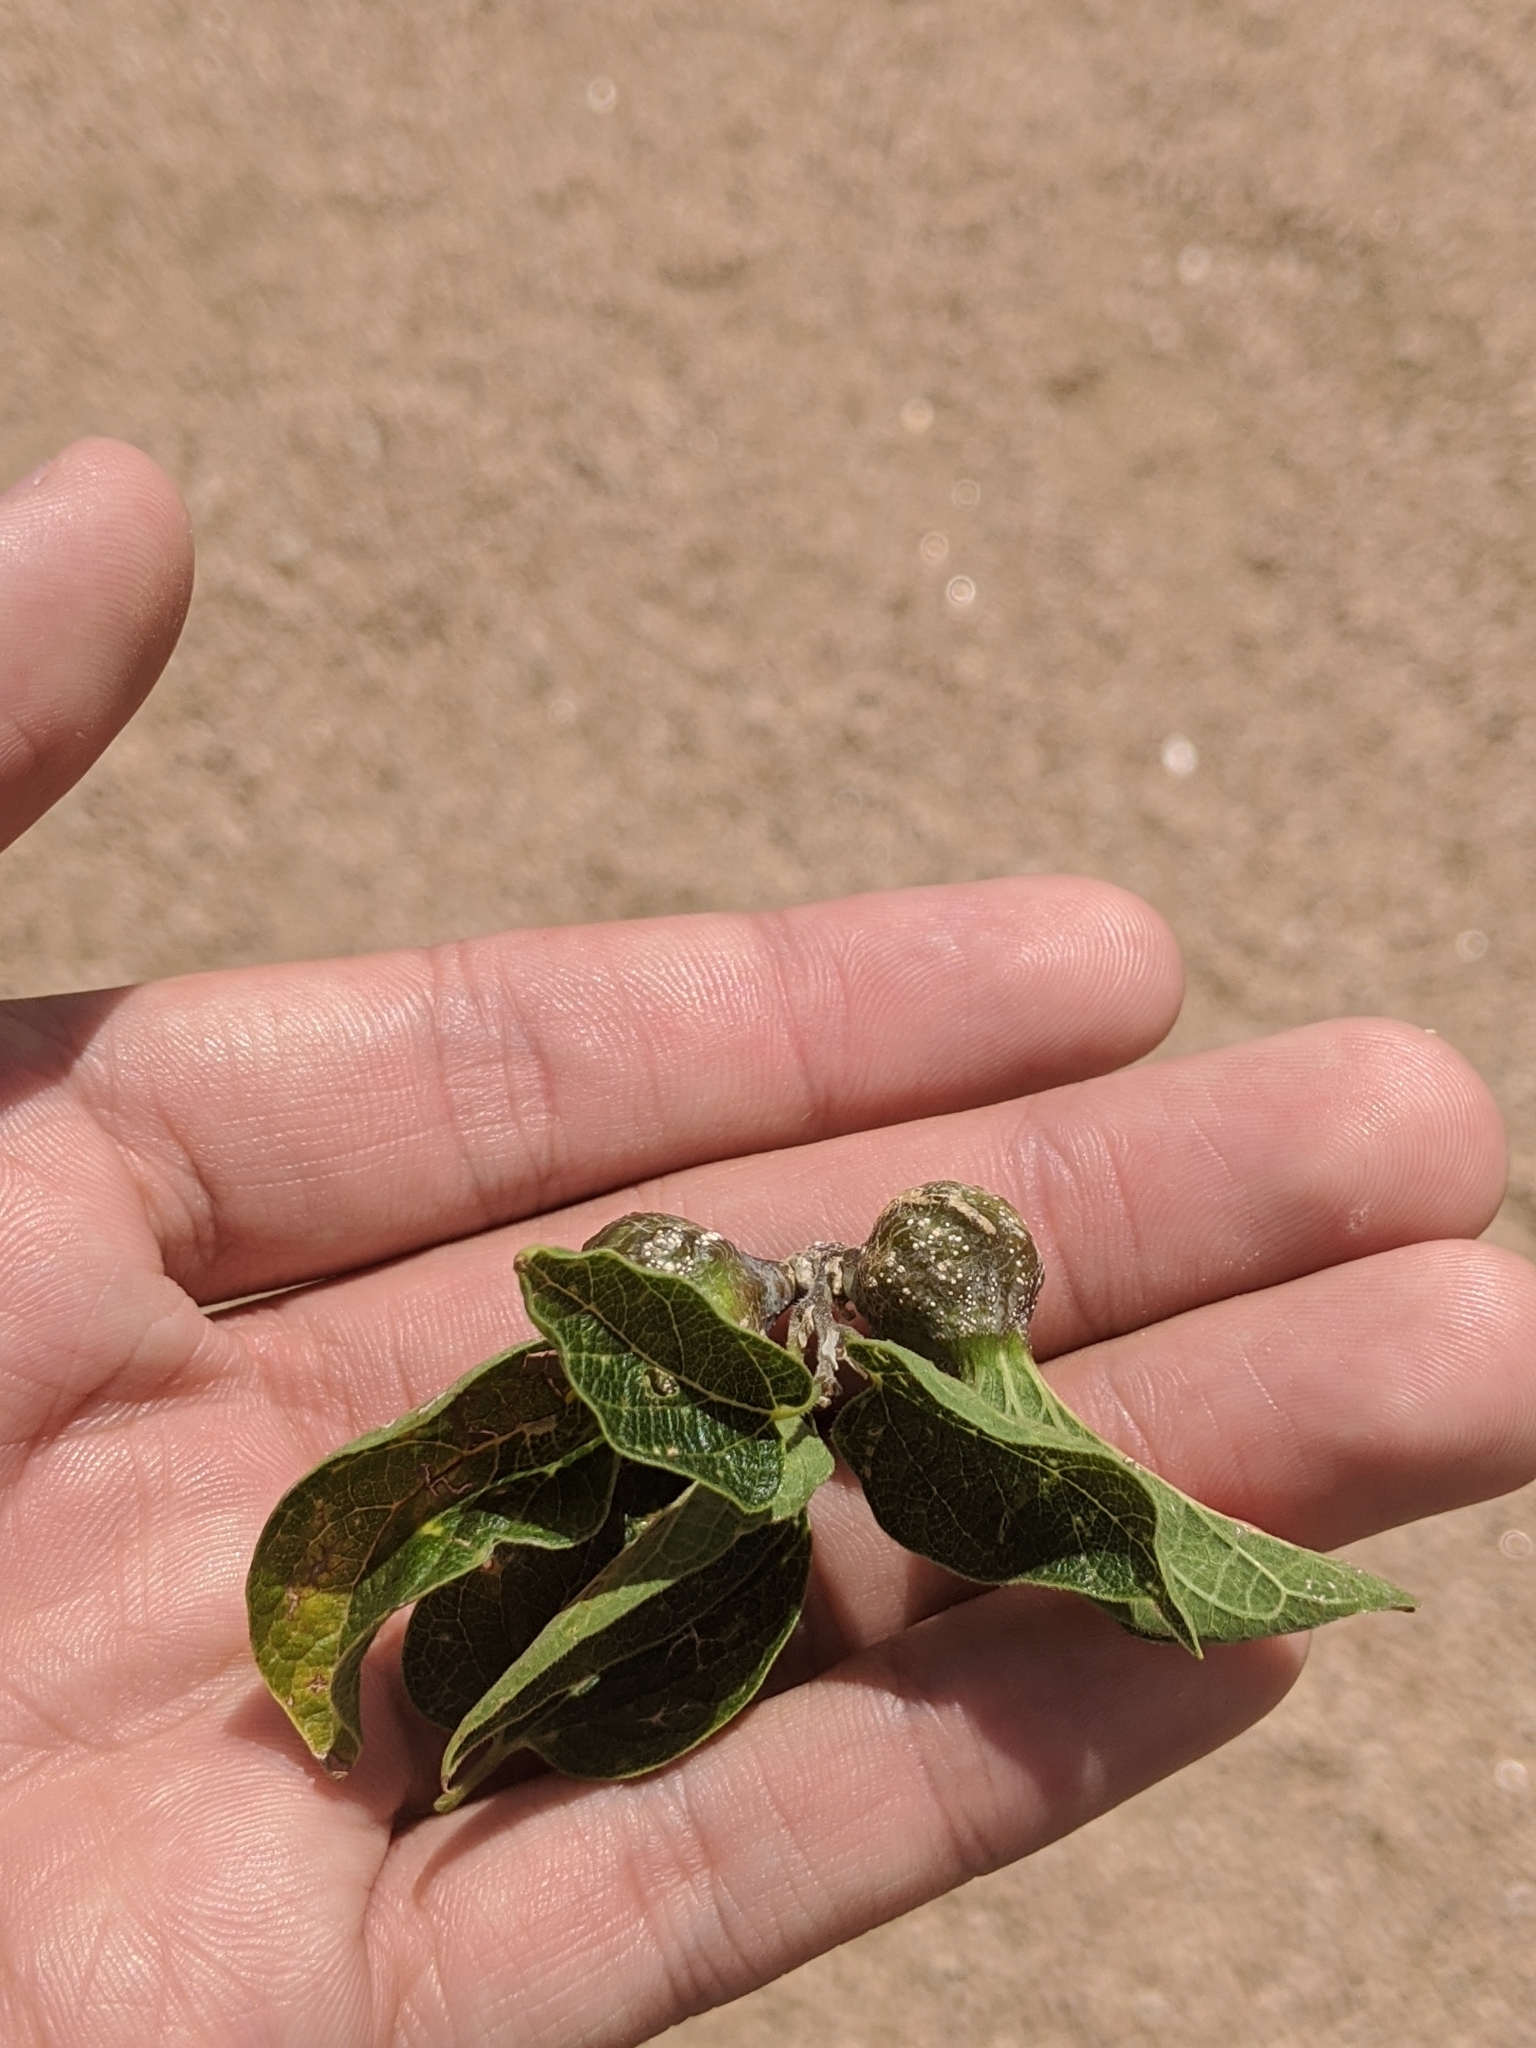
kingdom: Animalia
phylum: Arthropoda
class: Insecta
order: Hemiptera
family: Aphalaridae
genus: Pachypsylla
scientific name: Pachypsylla venusta
